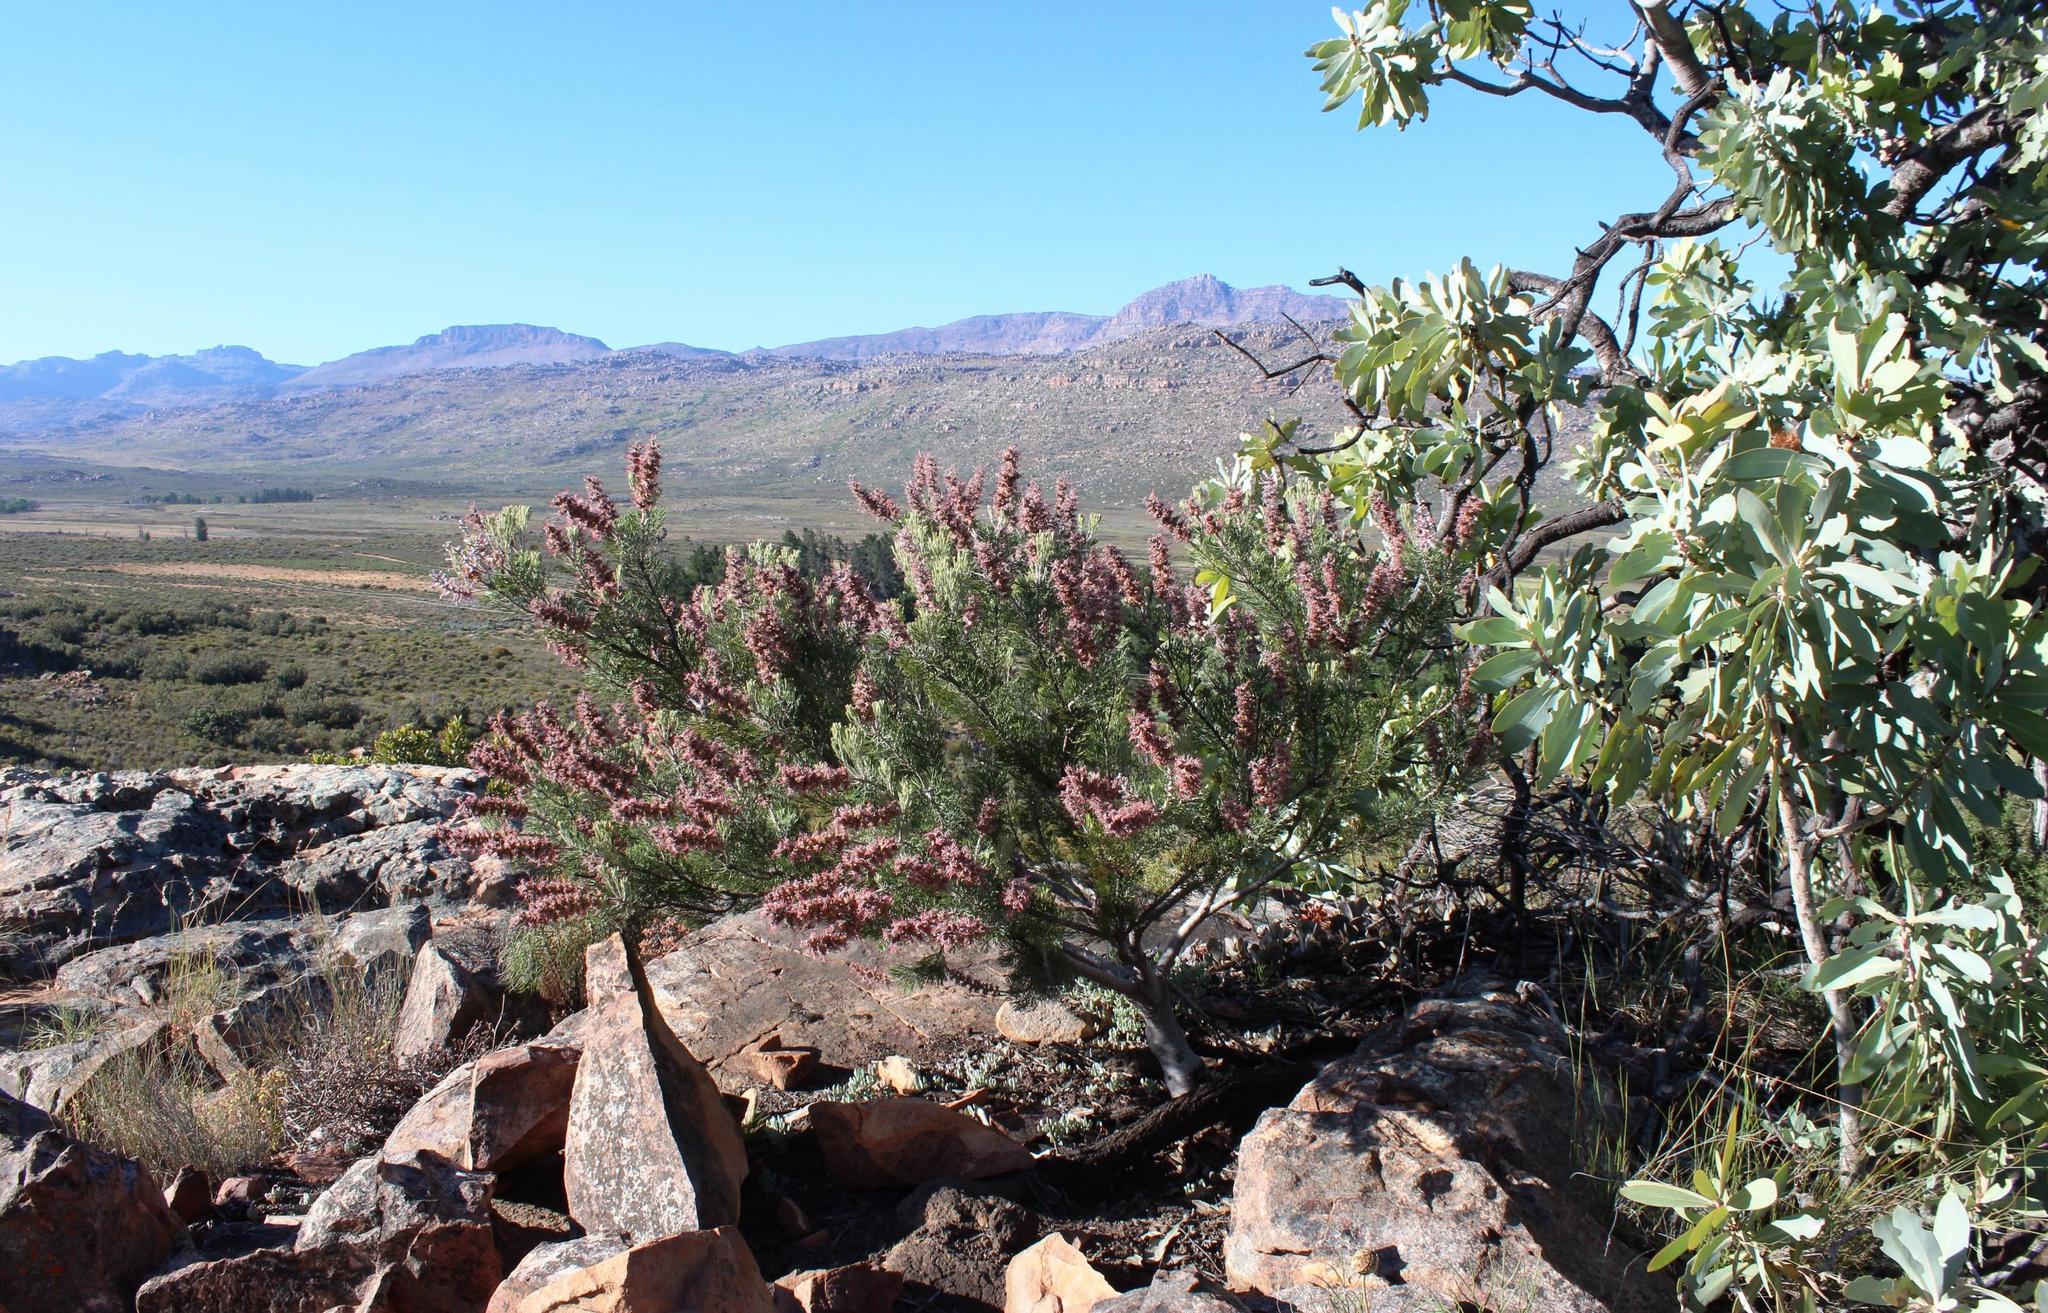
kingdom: Plantae
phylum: Tracheophyta
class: Magnoliopsida
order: Proteales
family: Proteaceae
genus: Paranomus
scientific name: Paranomus bracteolaris
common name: Bokkeveld tree sceptre
